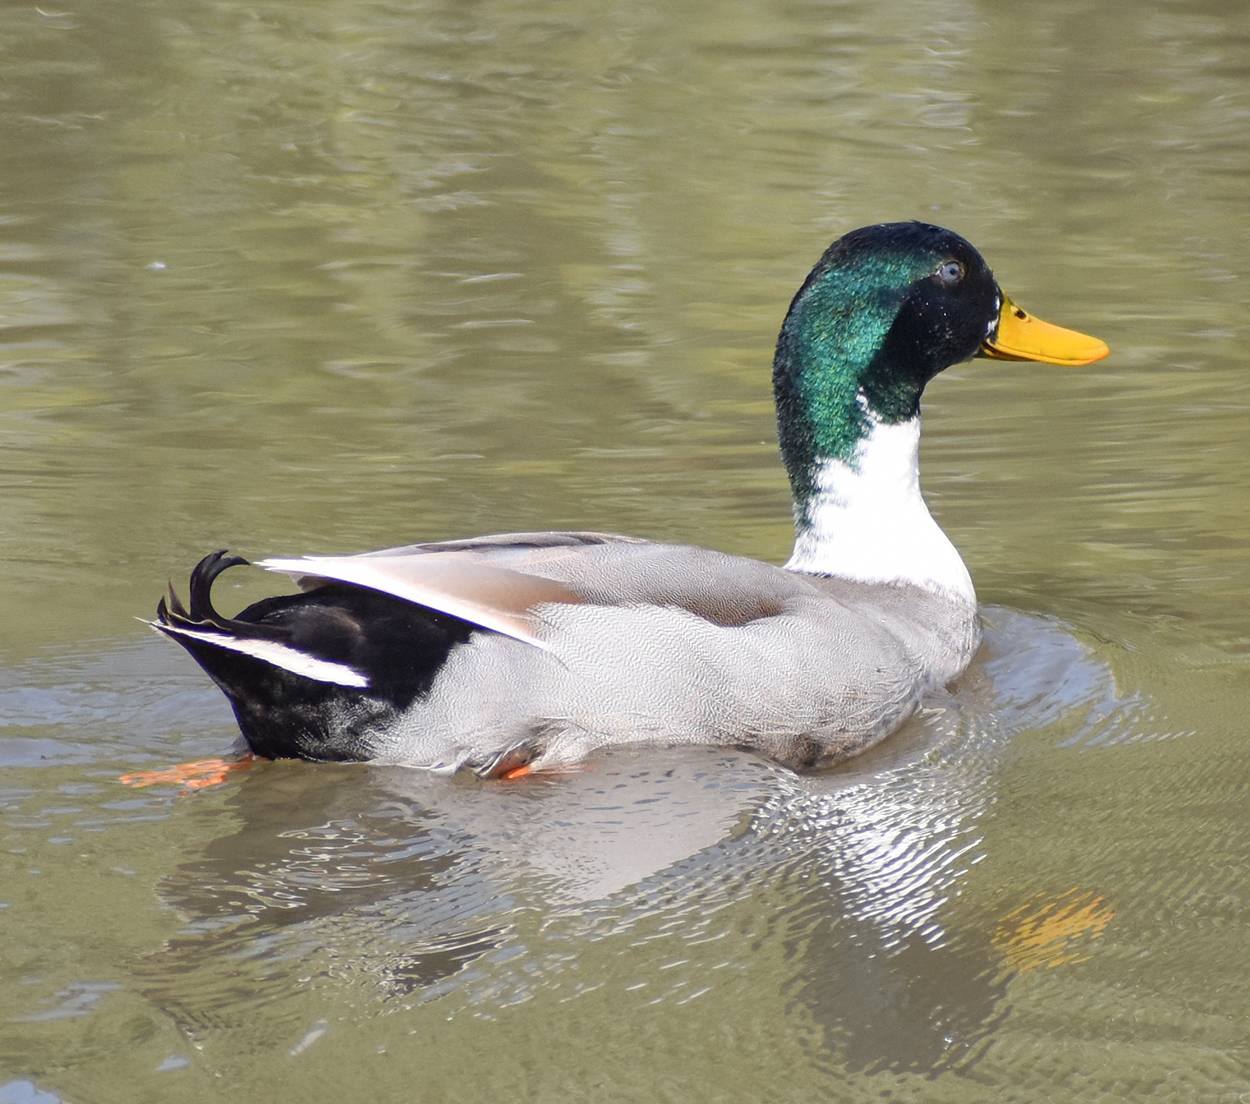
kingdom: Animalia
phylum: Chordata
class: Aves
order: Anseriformes
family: Anatidae
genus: Anas
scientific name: Anas platyrhynchos
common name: Mallard
